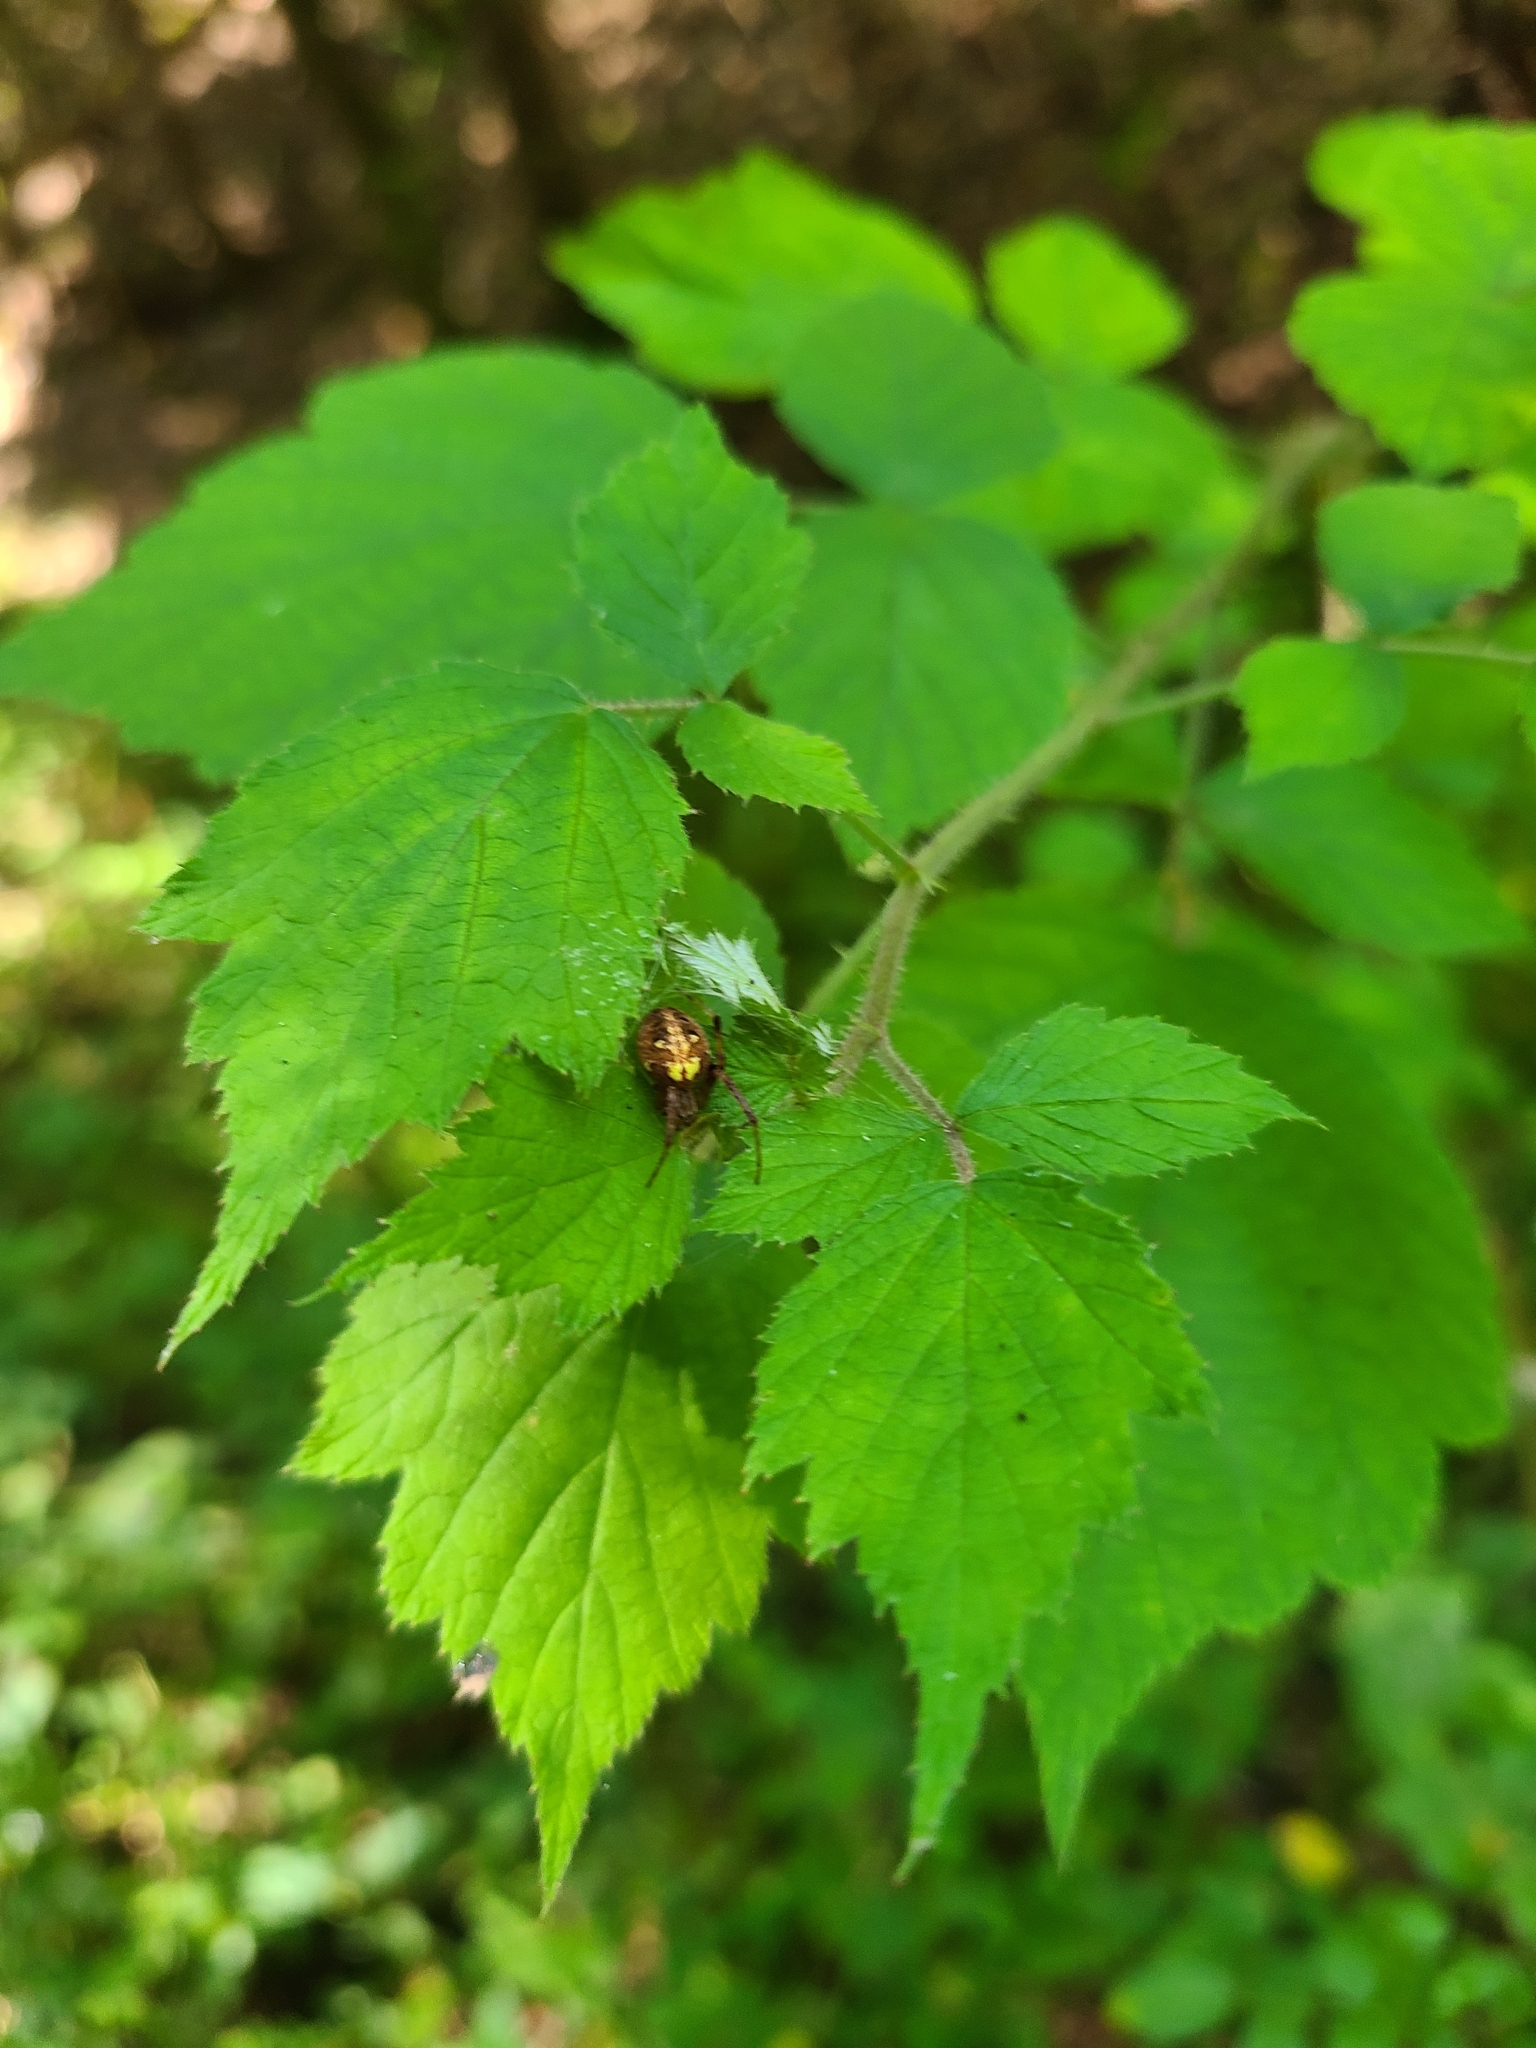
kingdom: Animalia
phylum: Arthropoda
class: Arachnida
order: Araneae
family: Araneidae
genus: Neoscona
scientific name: Neoscona arabesca
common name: Orb weavers
